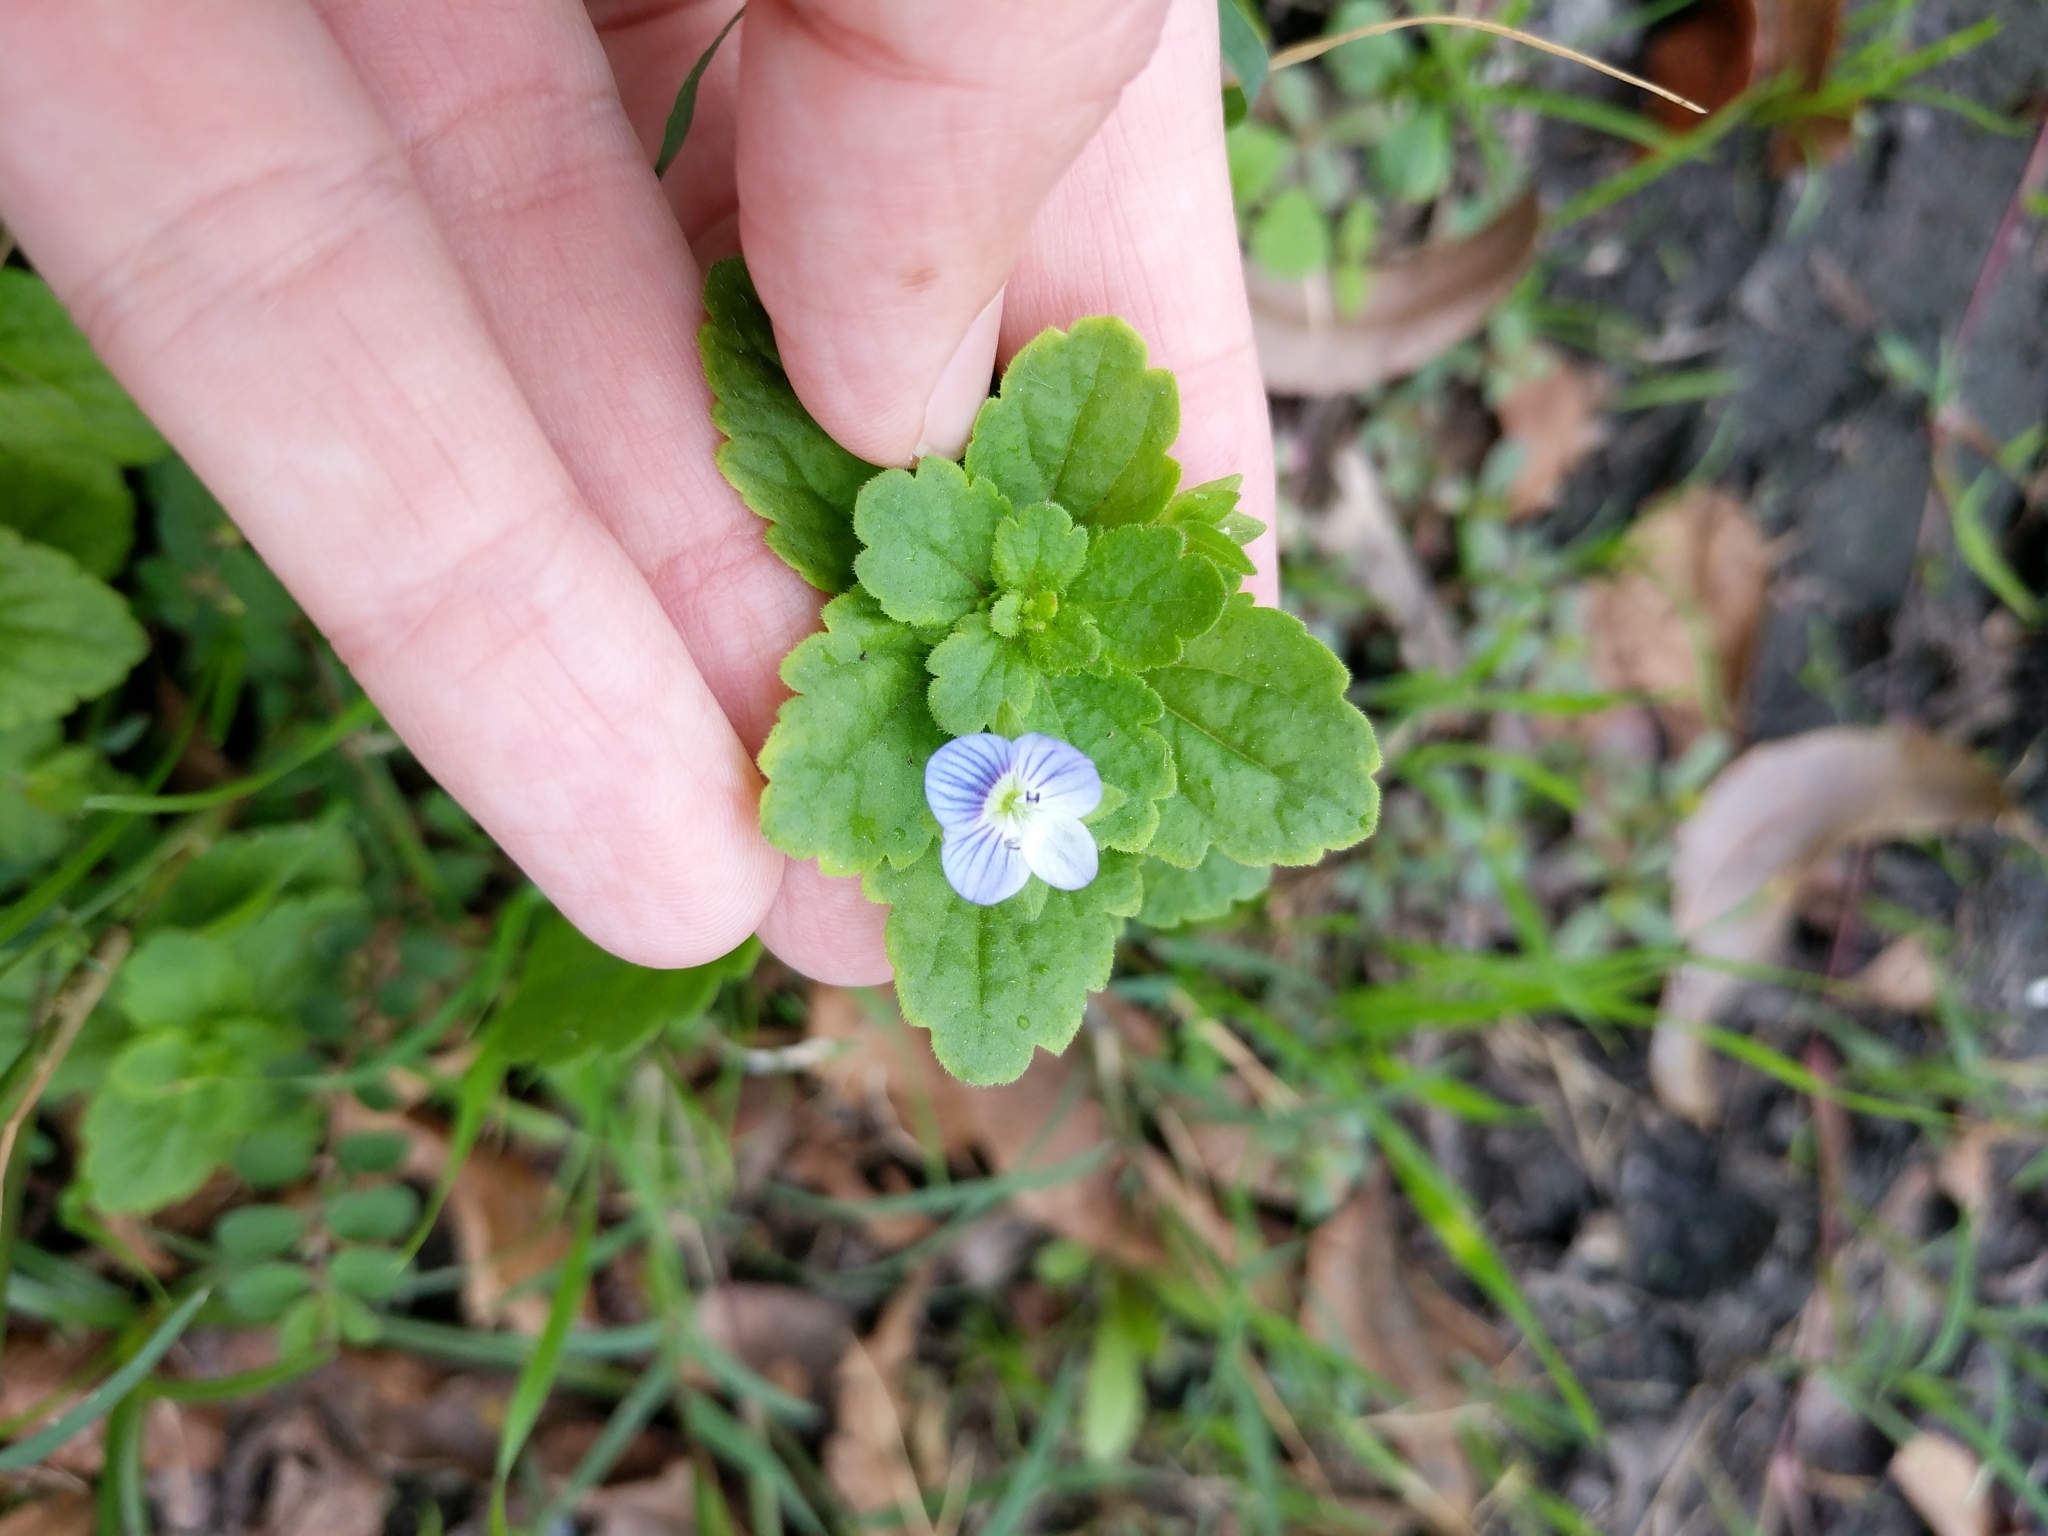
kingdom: Plantae
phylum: Tracheophyta
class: Magnoliopsida
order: Lamiales
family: Plantaginaceae
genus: Veronica
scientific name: Veronica persica
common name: Common field-speedwell
